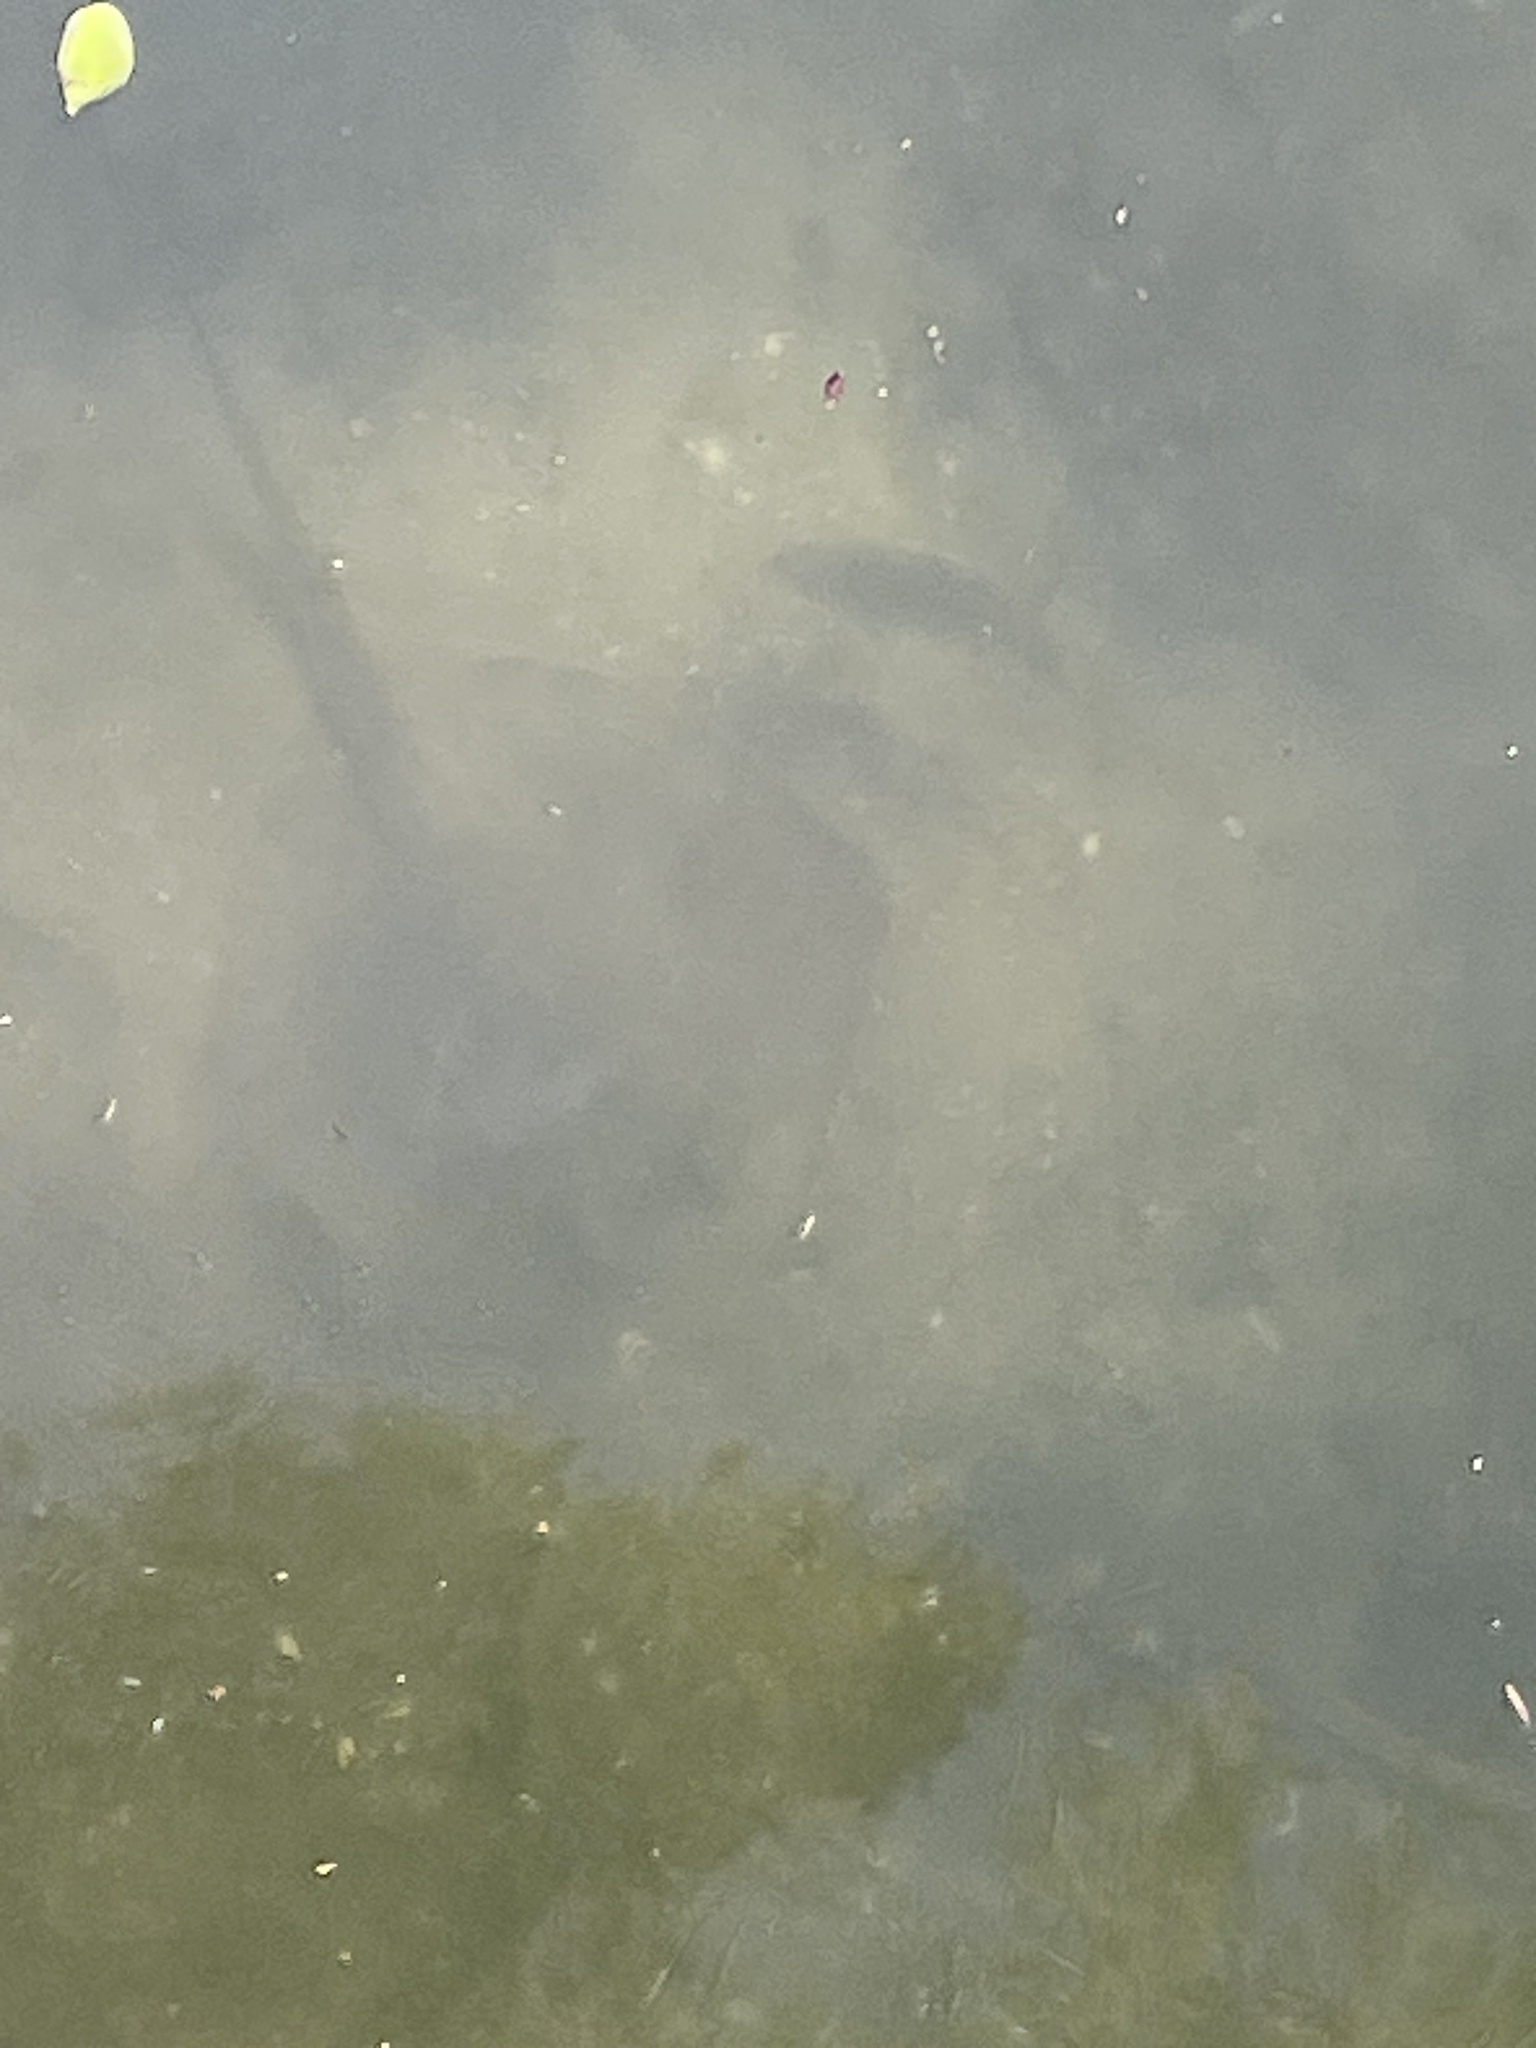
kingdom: Animalia
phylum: Chordata
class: Elasmobranchii
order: Myliobatiformes
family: Dasyatidae
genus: Hypanus
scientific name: Hypanus sabinus
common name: Atlantic stingray
